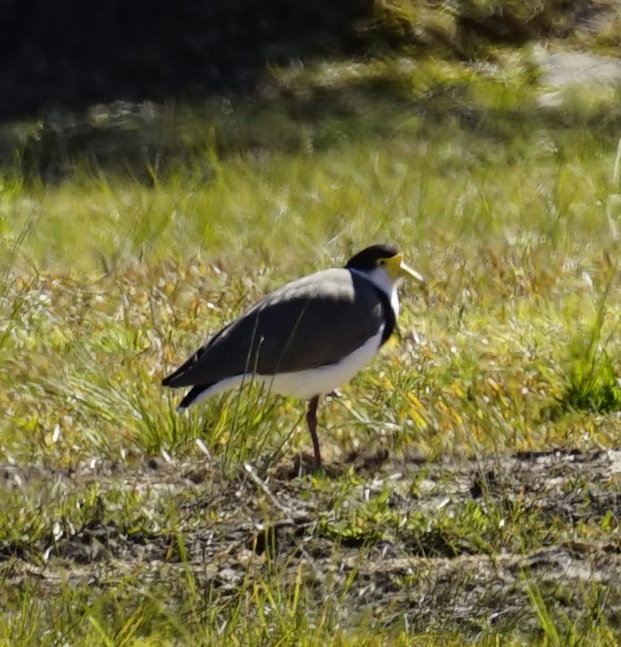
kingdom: Animalia
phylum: Chordata
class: Aves
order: Charadriiformes
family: Charadriidae
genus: Vanellus
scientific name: Vanellus miles
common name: Masked lapwing
